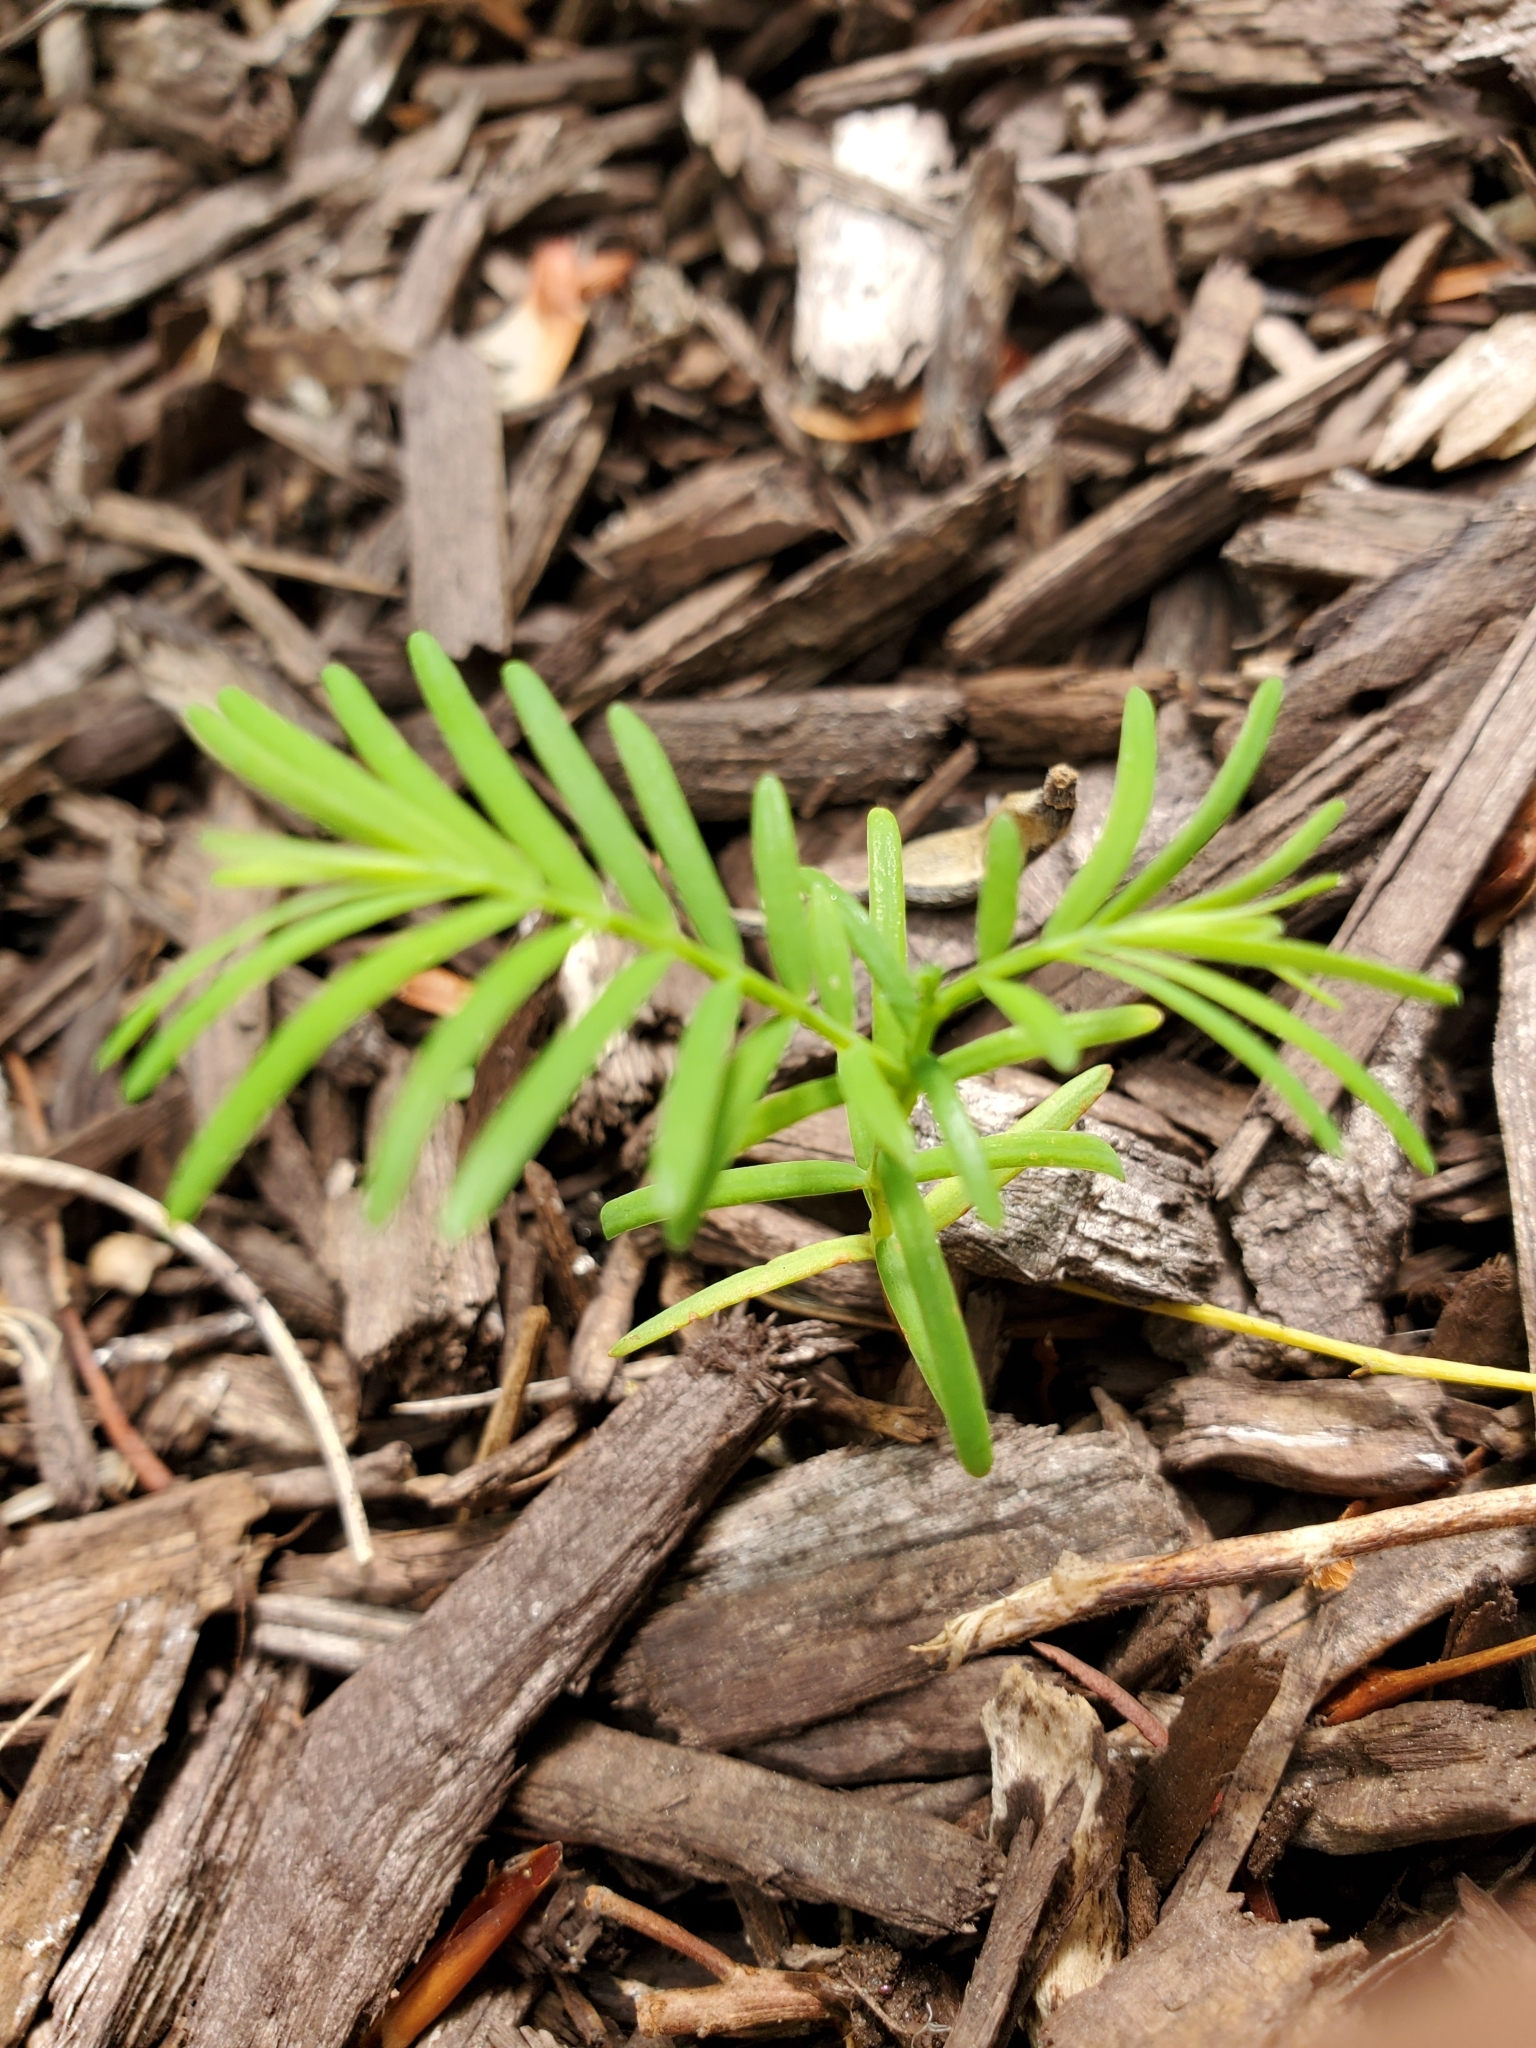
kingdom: Plantae
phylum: Tracheophyta
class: Pinopsida
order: Pinales
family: Cupressaceae
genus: Metasequoia
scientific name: Metasequoia glyptostroboides
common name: Dawn redwood
